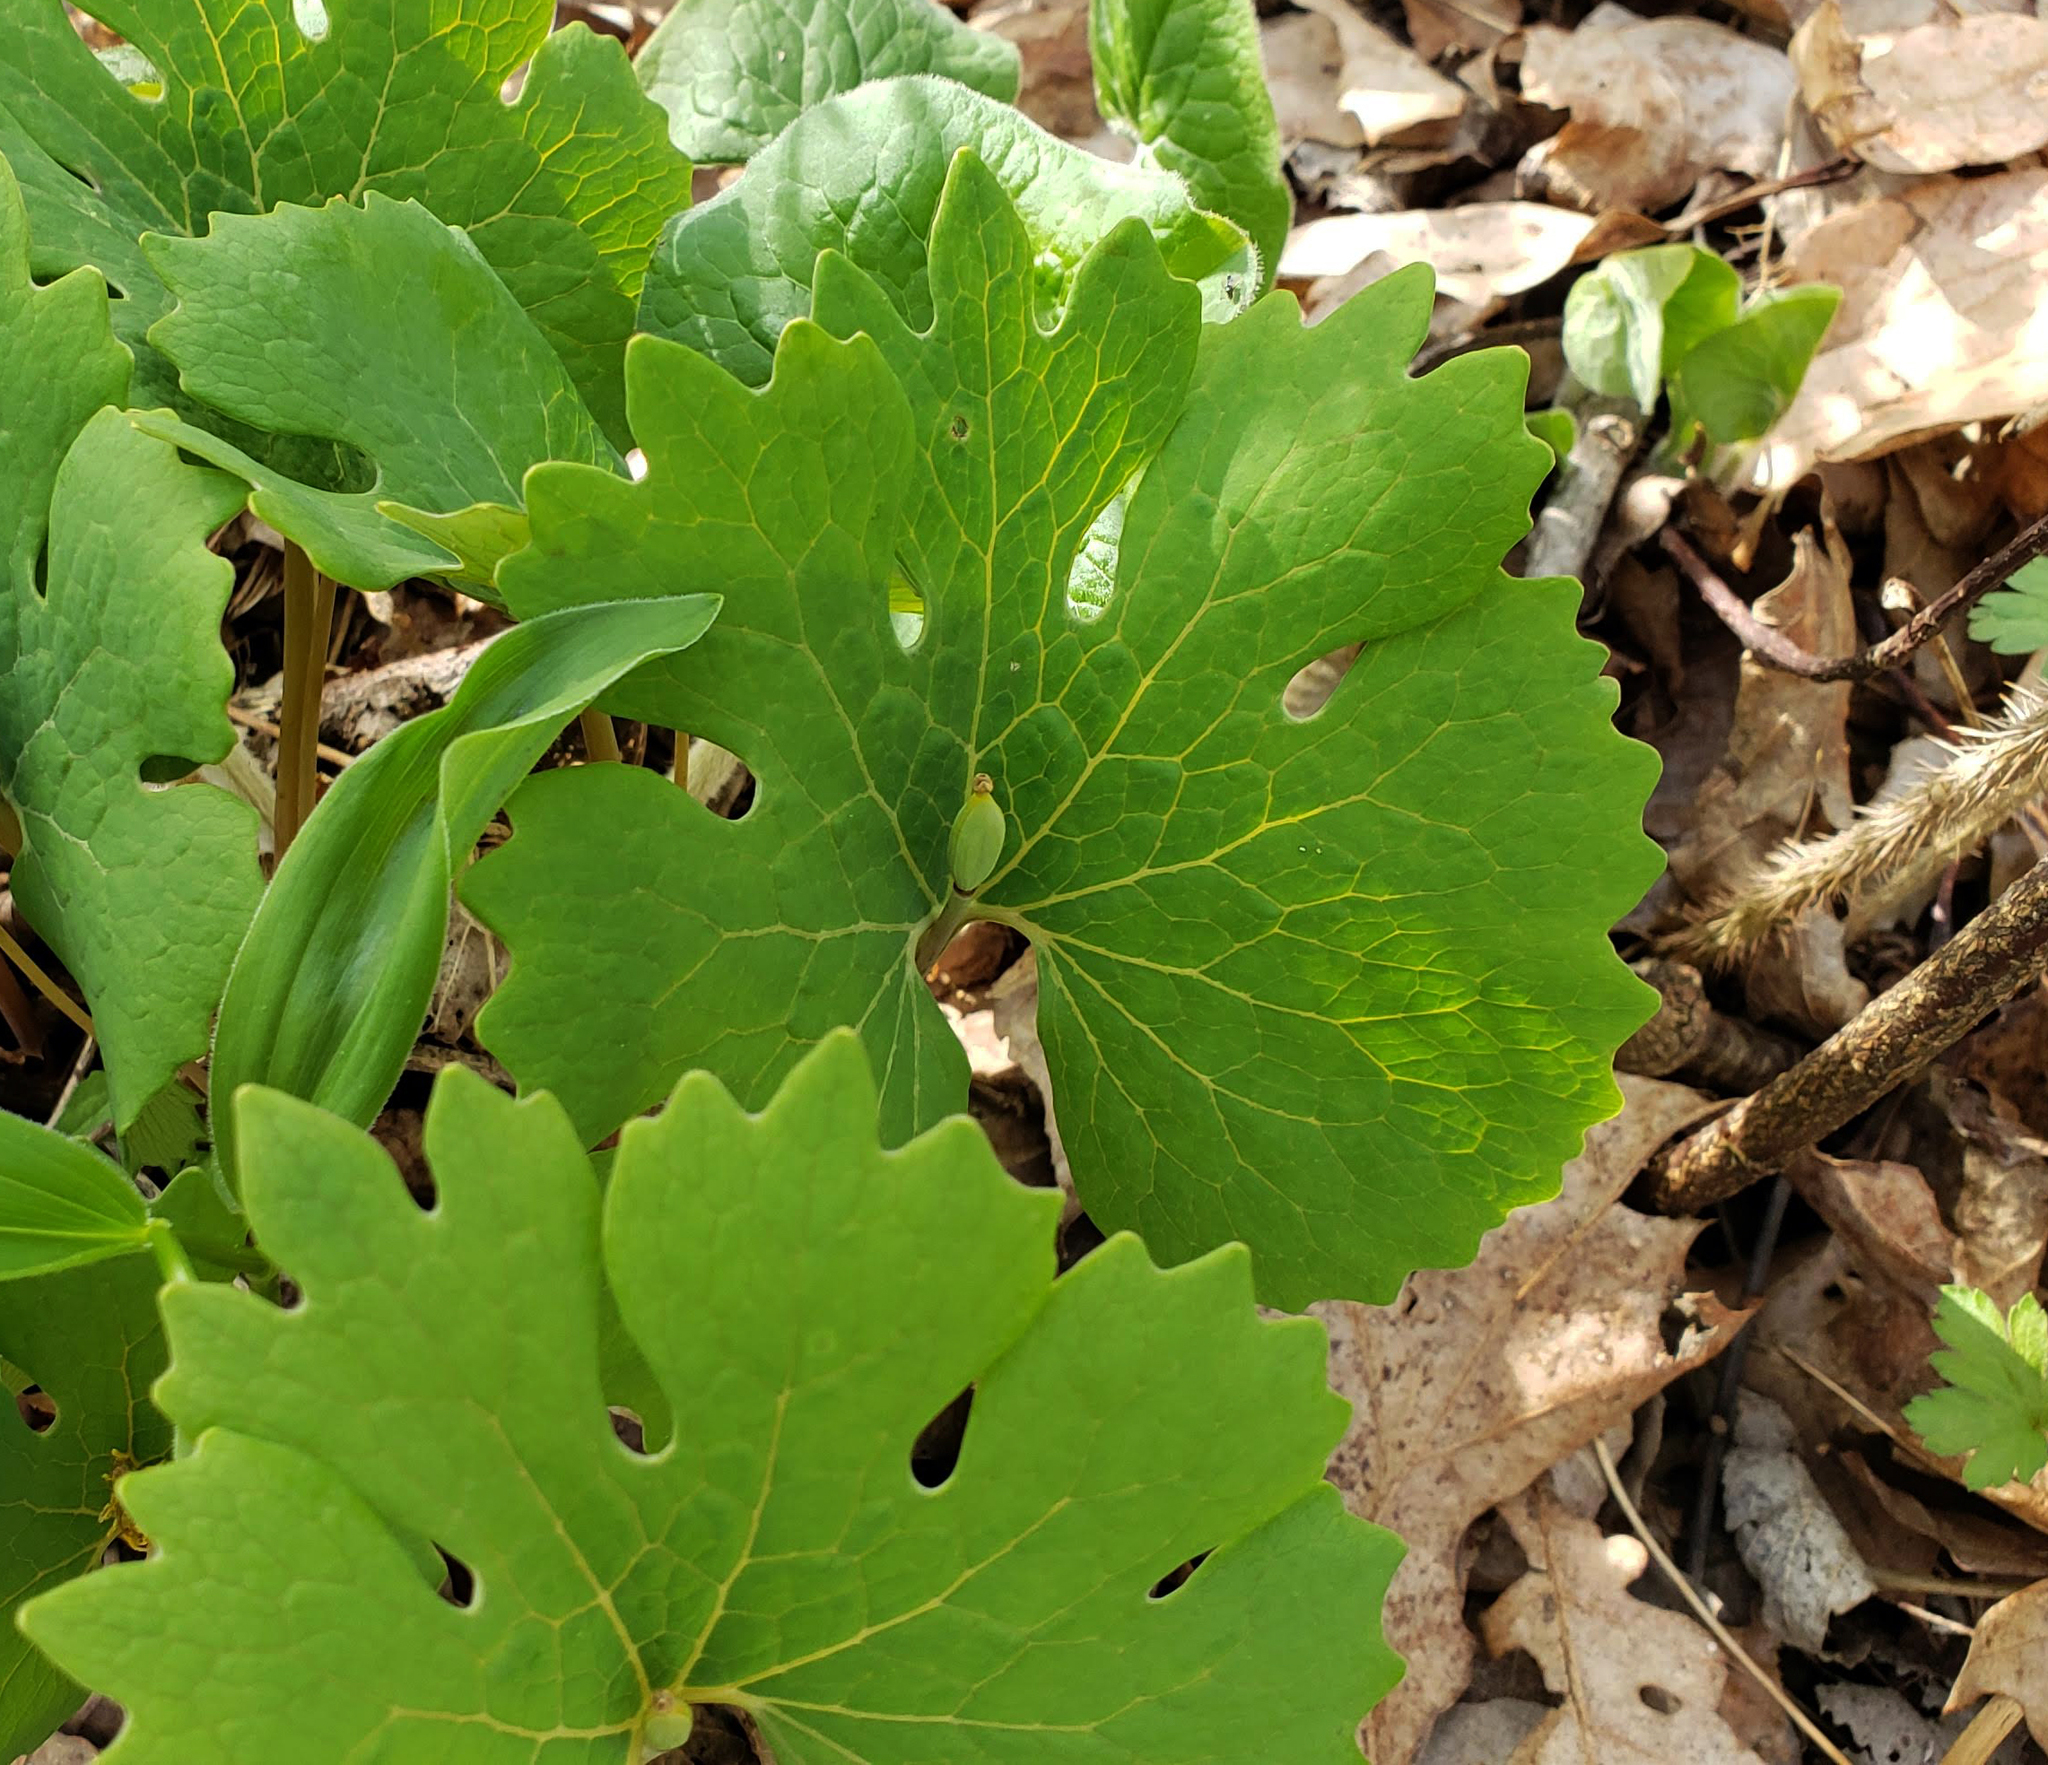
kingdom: Plantae
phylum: Tracheophyta
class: Magnoliopsida
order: Ranunculales
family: Papaveraceae
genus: Sanguinaria
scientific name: Sanguinaria canadensis
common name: Bloodroot
